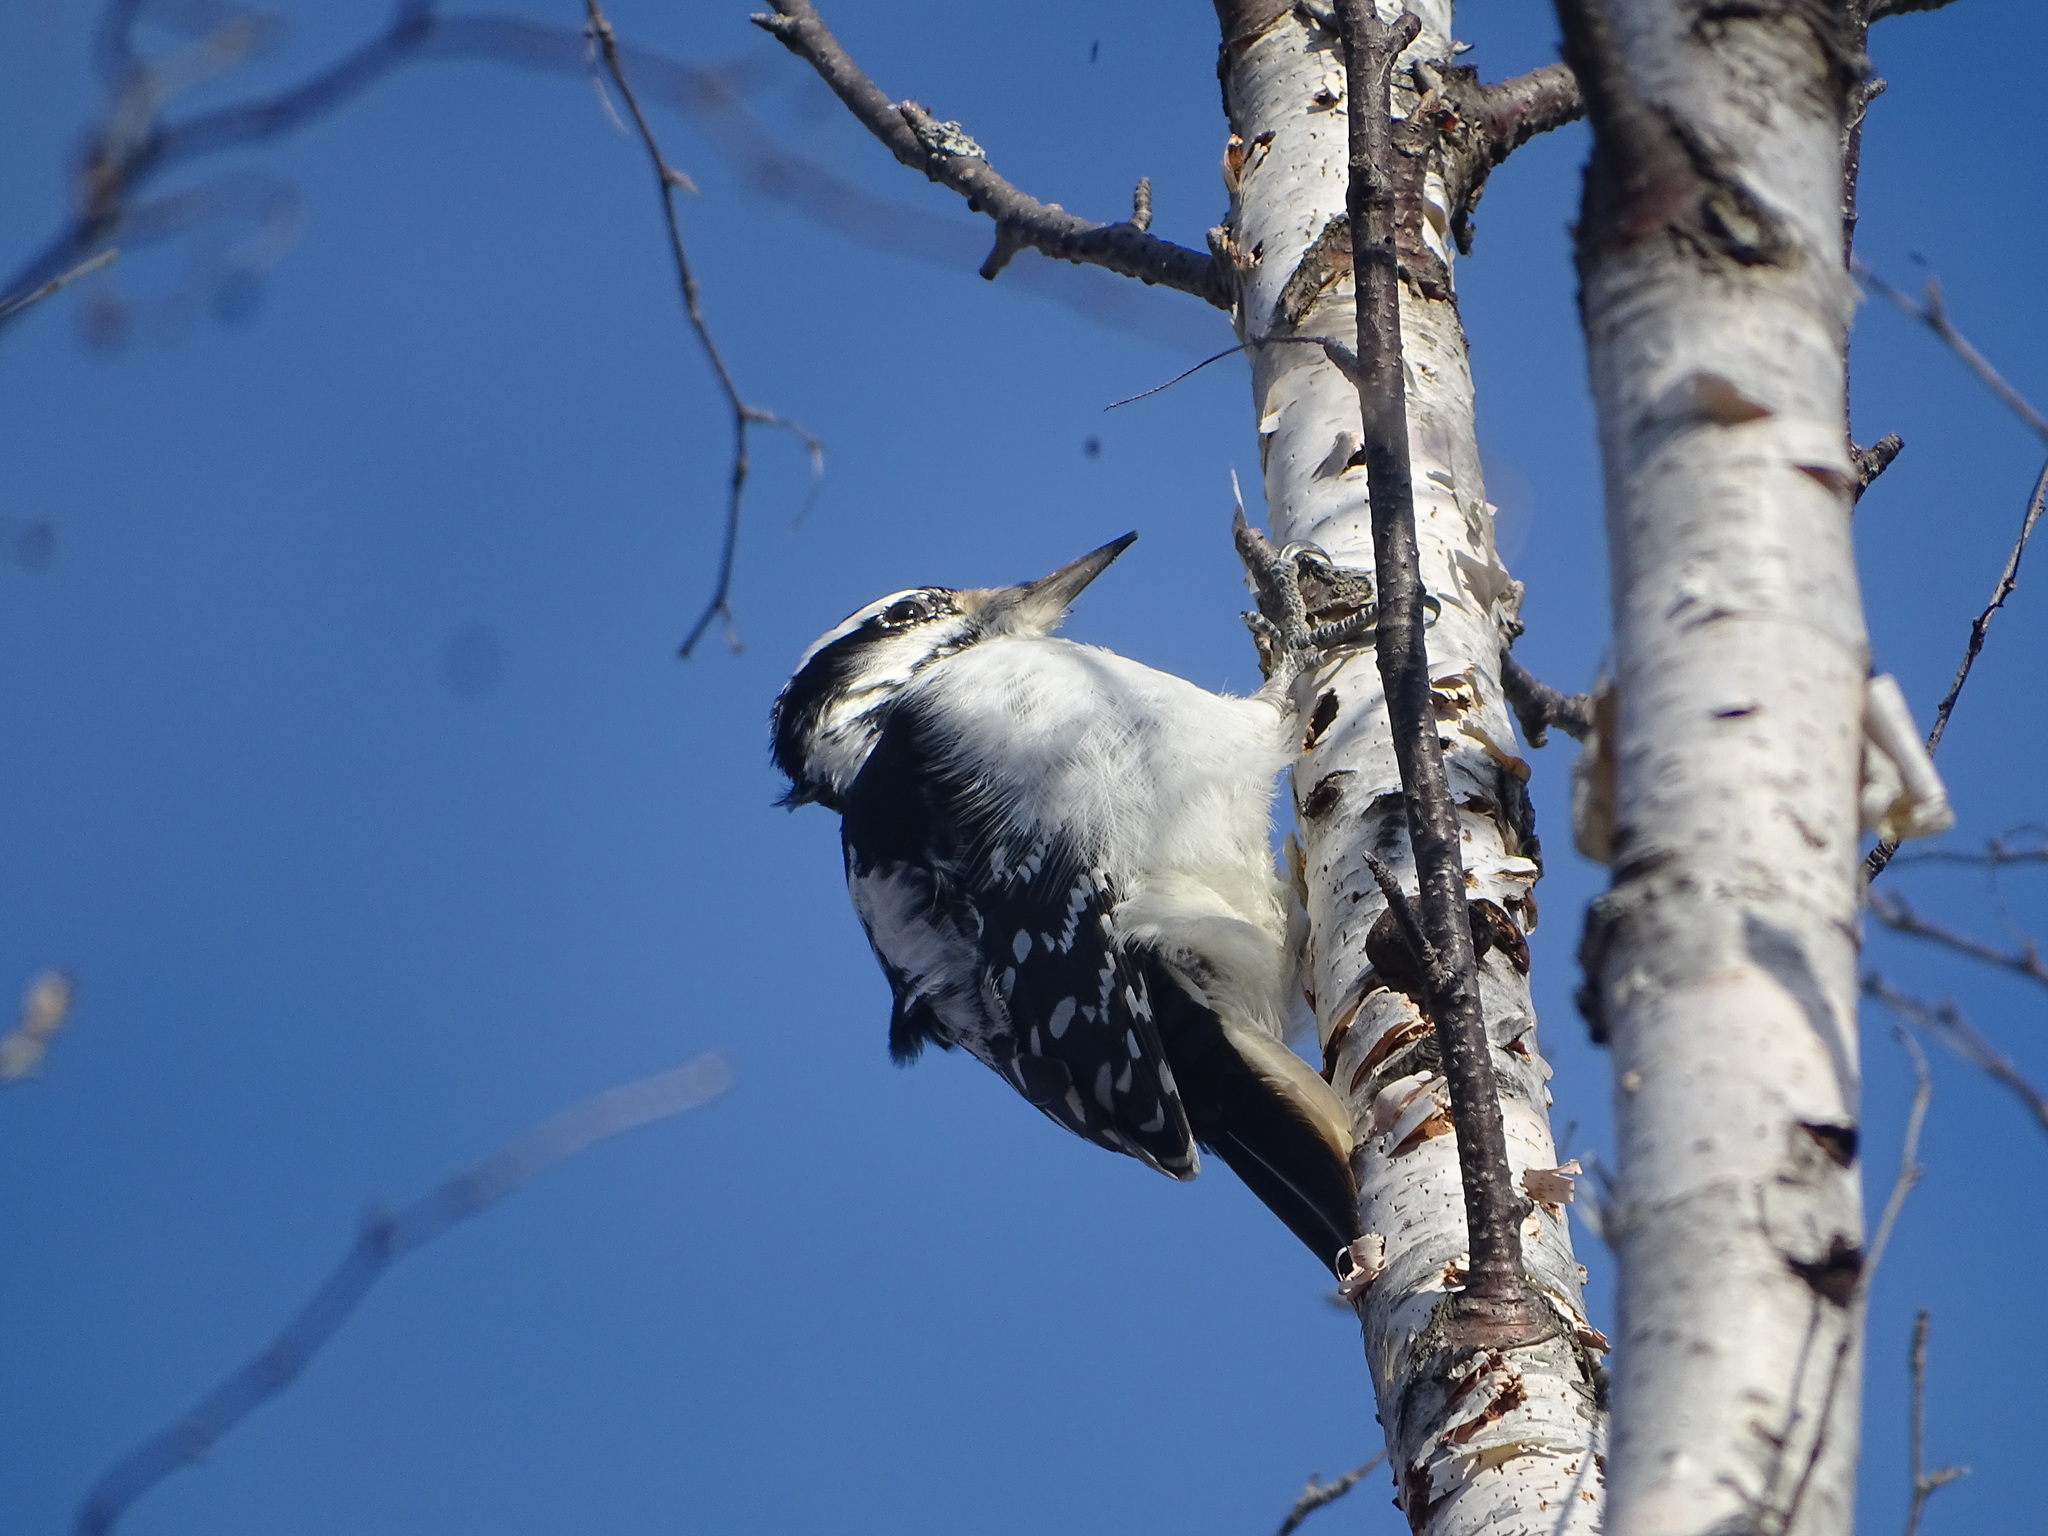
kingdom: Animalia
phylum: Chordata
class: Aves
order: Piciformes
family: Picidae
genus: Leuconotopicus
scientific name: Leuconotopicus villosus
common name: Hairy woodpecker
